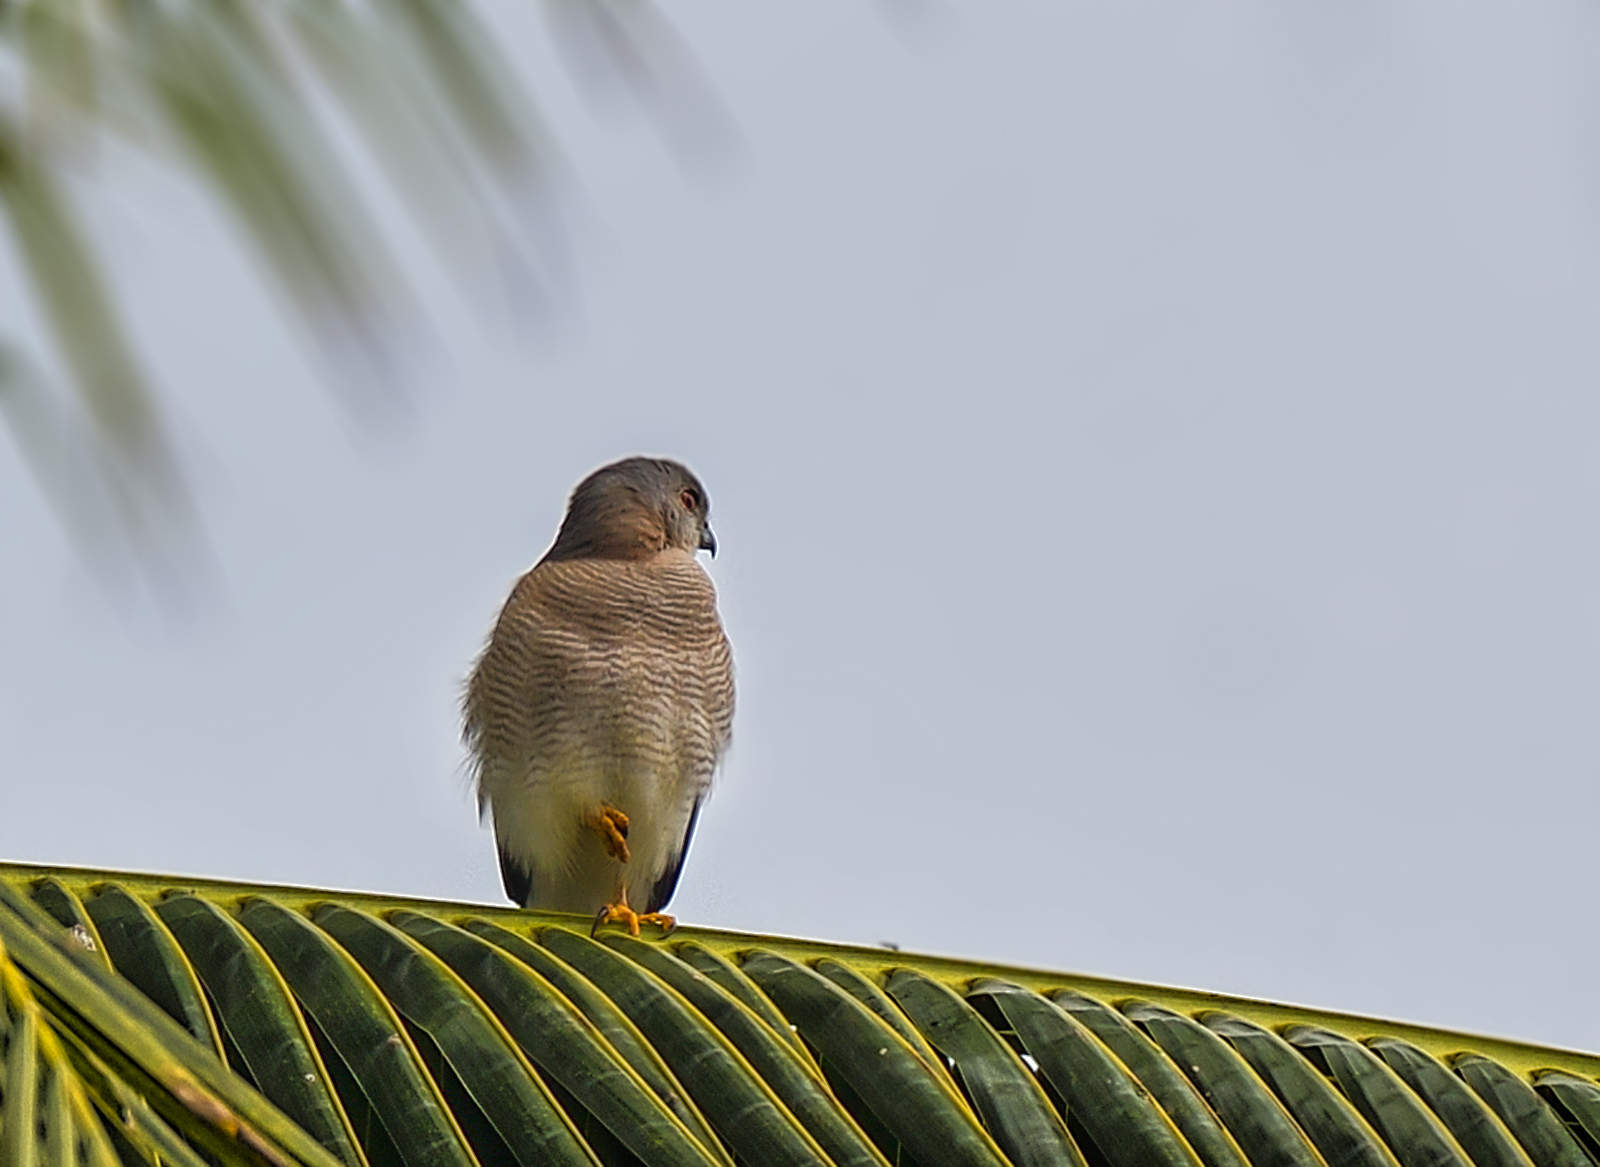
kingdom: Animalia
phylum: Chordata
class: Aves
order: Accipitriformes
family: Accipitridae
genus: Accipiter
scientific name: Accipiter badius
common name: Shikra
